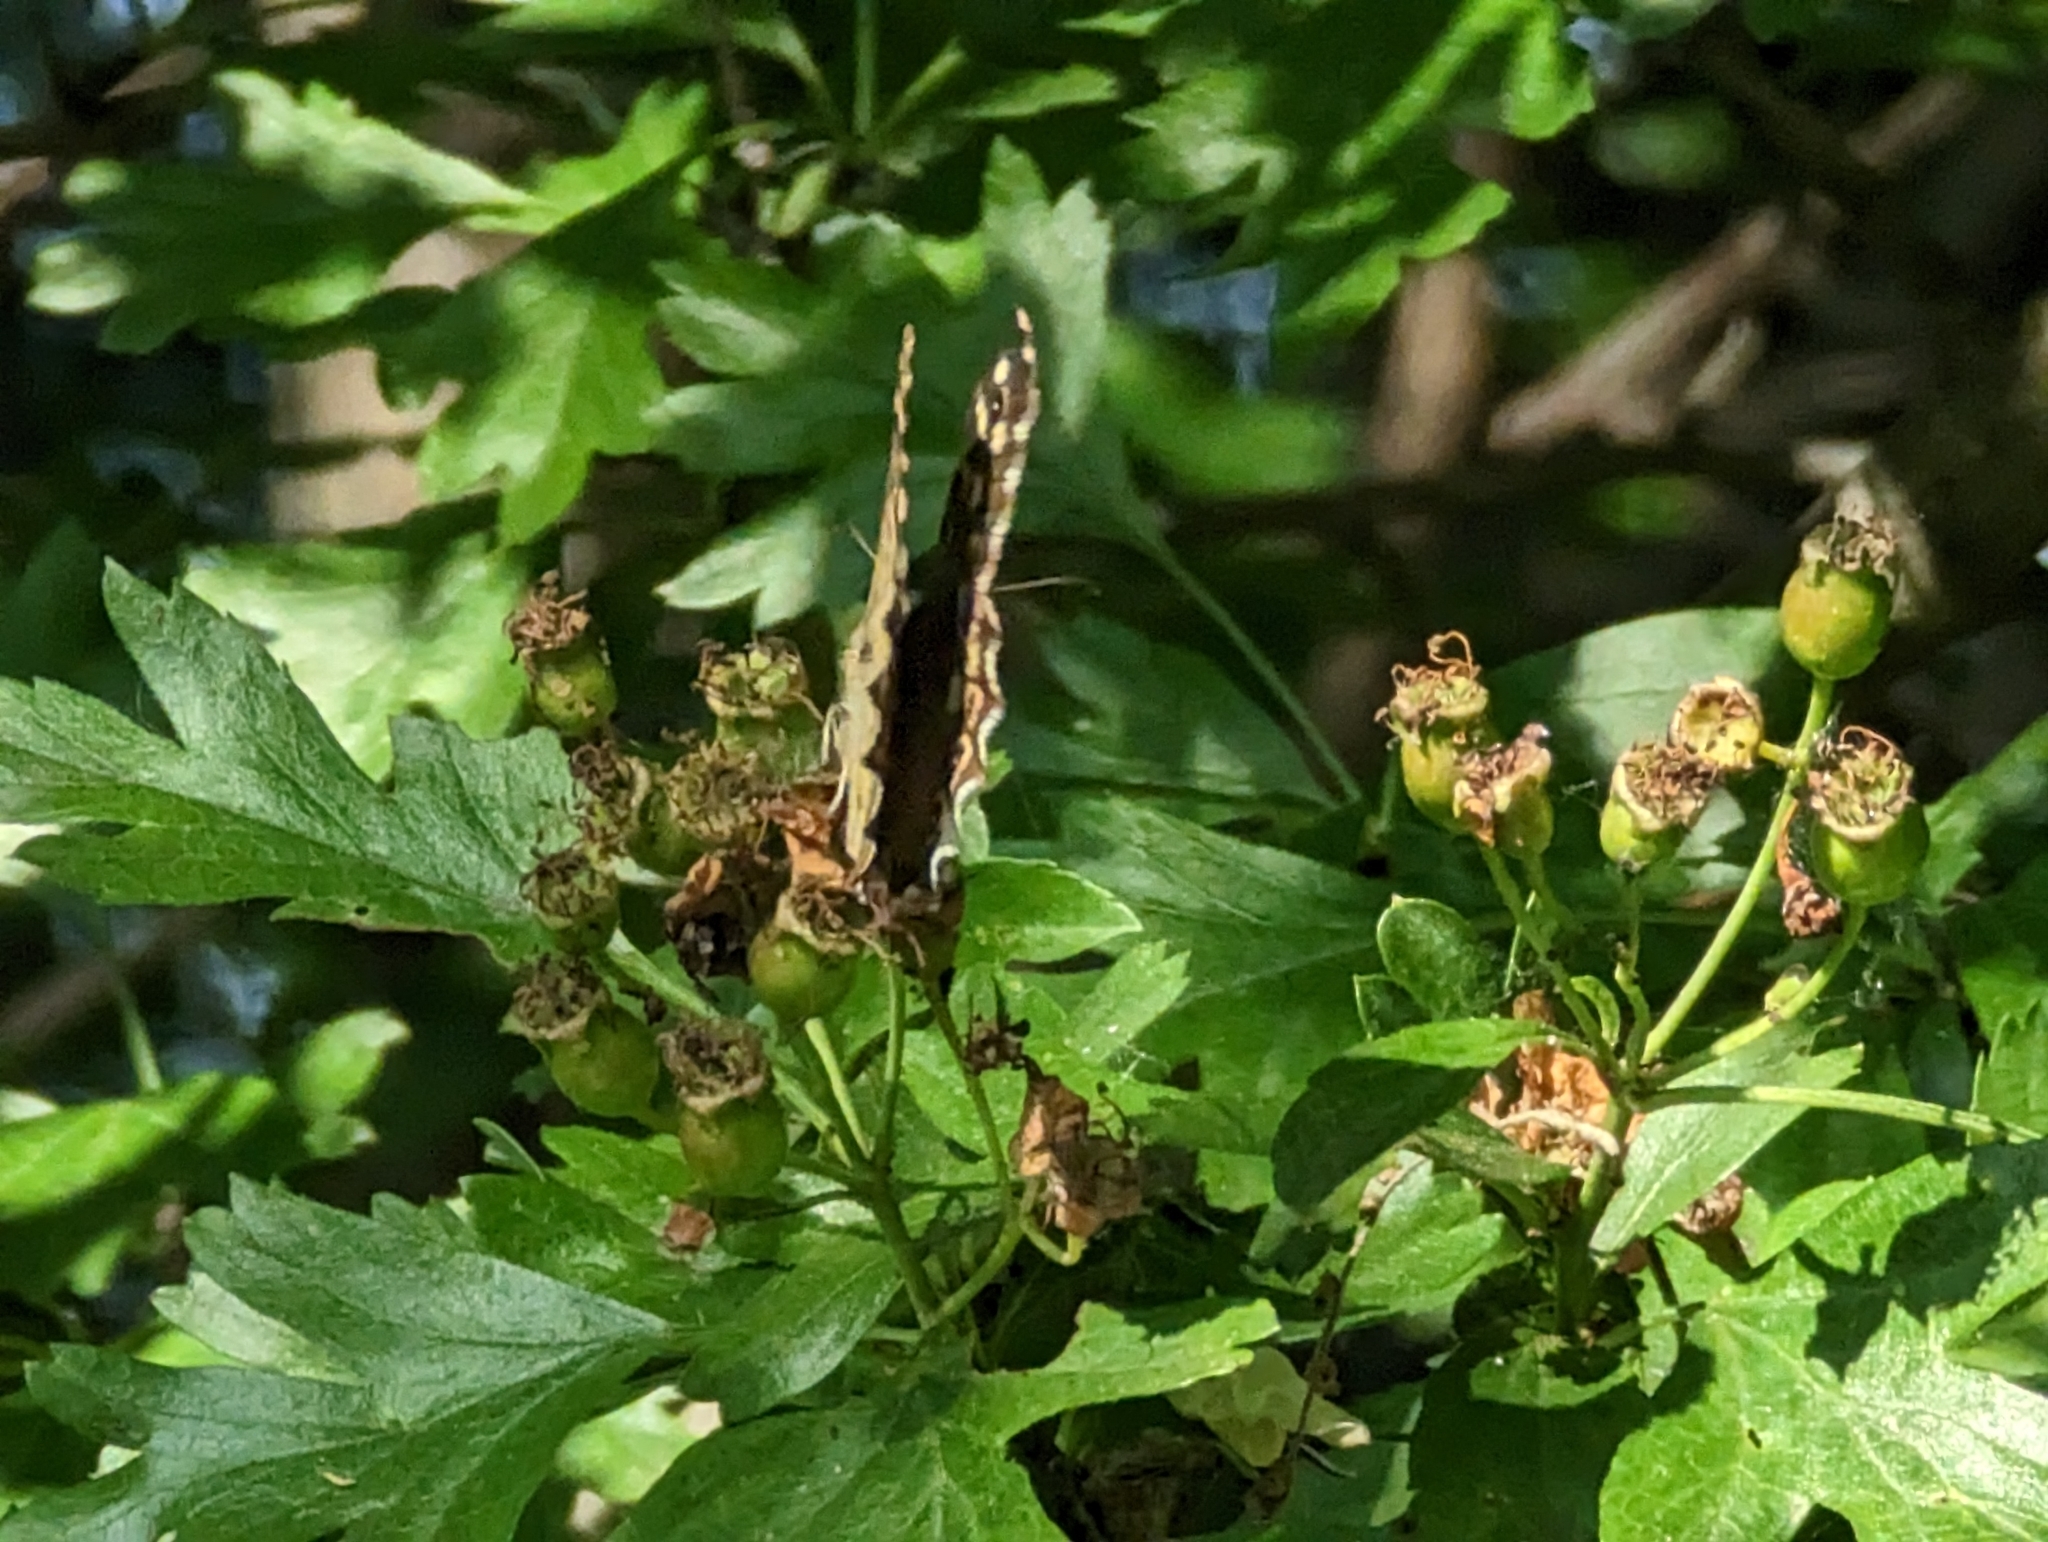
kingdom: Animalia
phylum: Arthropoda
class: Insecta
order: Lepidoptera
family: Nymphalidae
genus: Pararge
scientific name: Pararge aegeria
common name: Speckled wood
